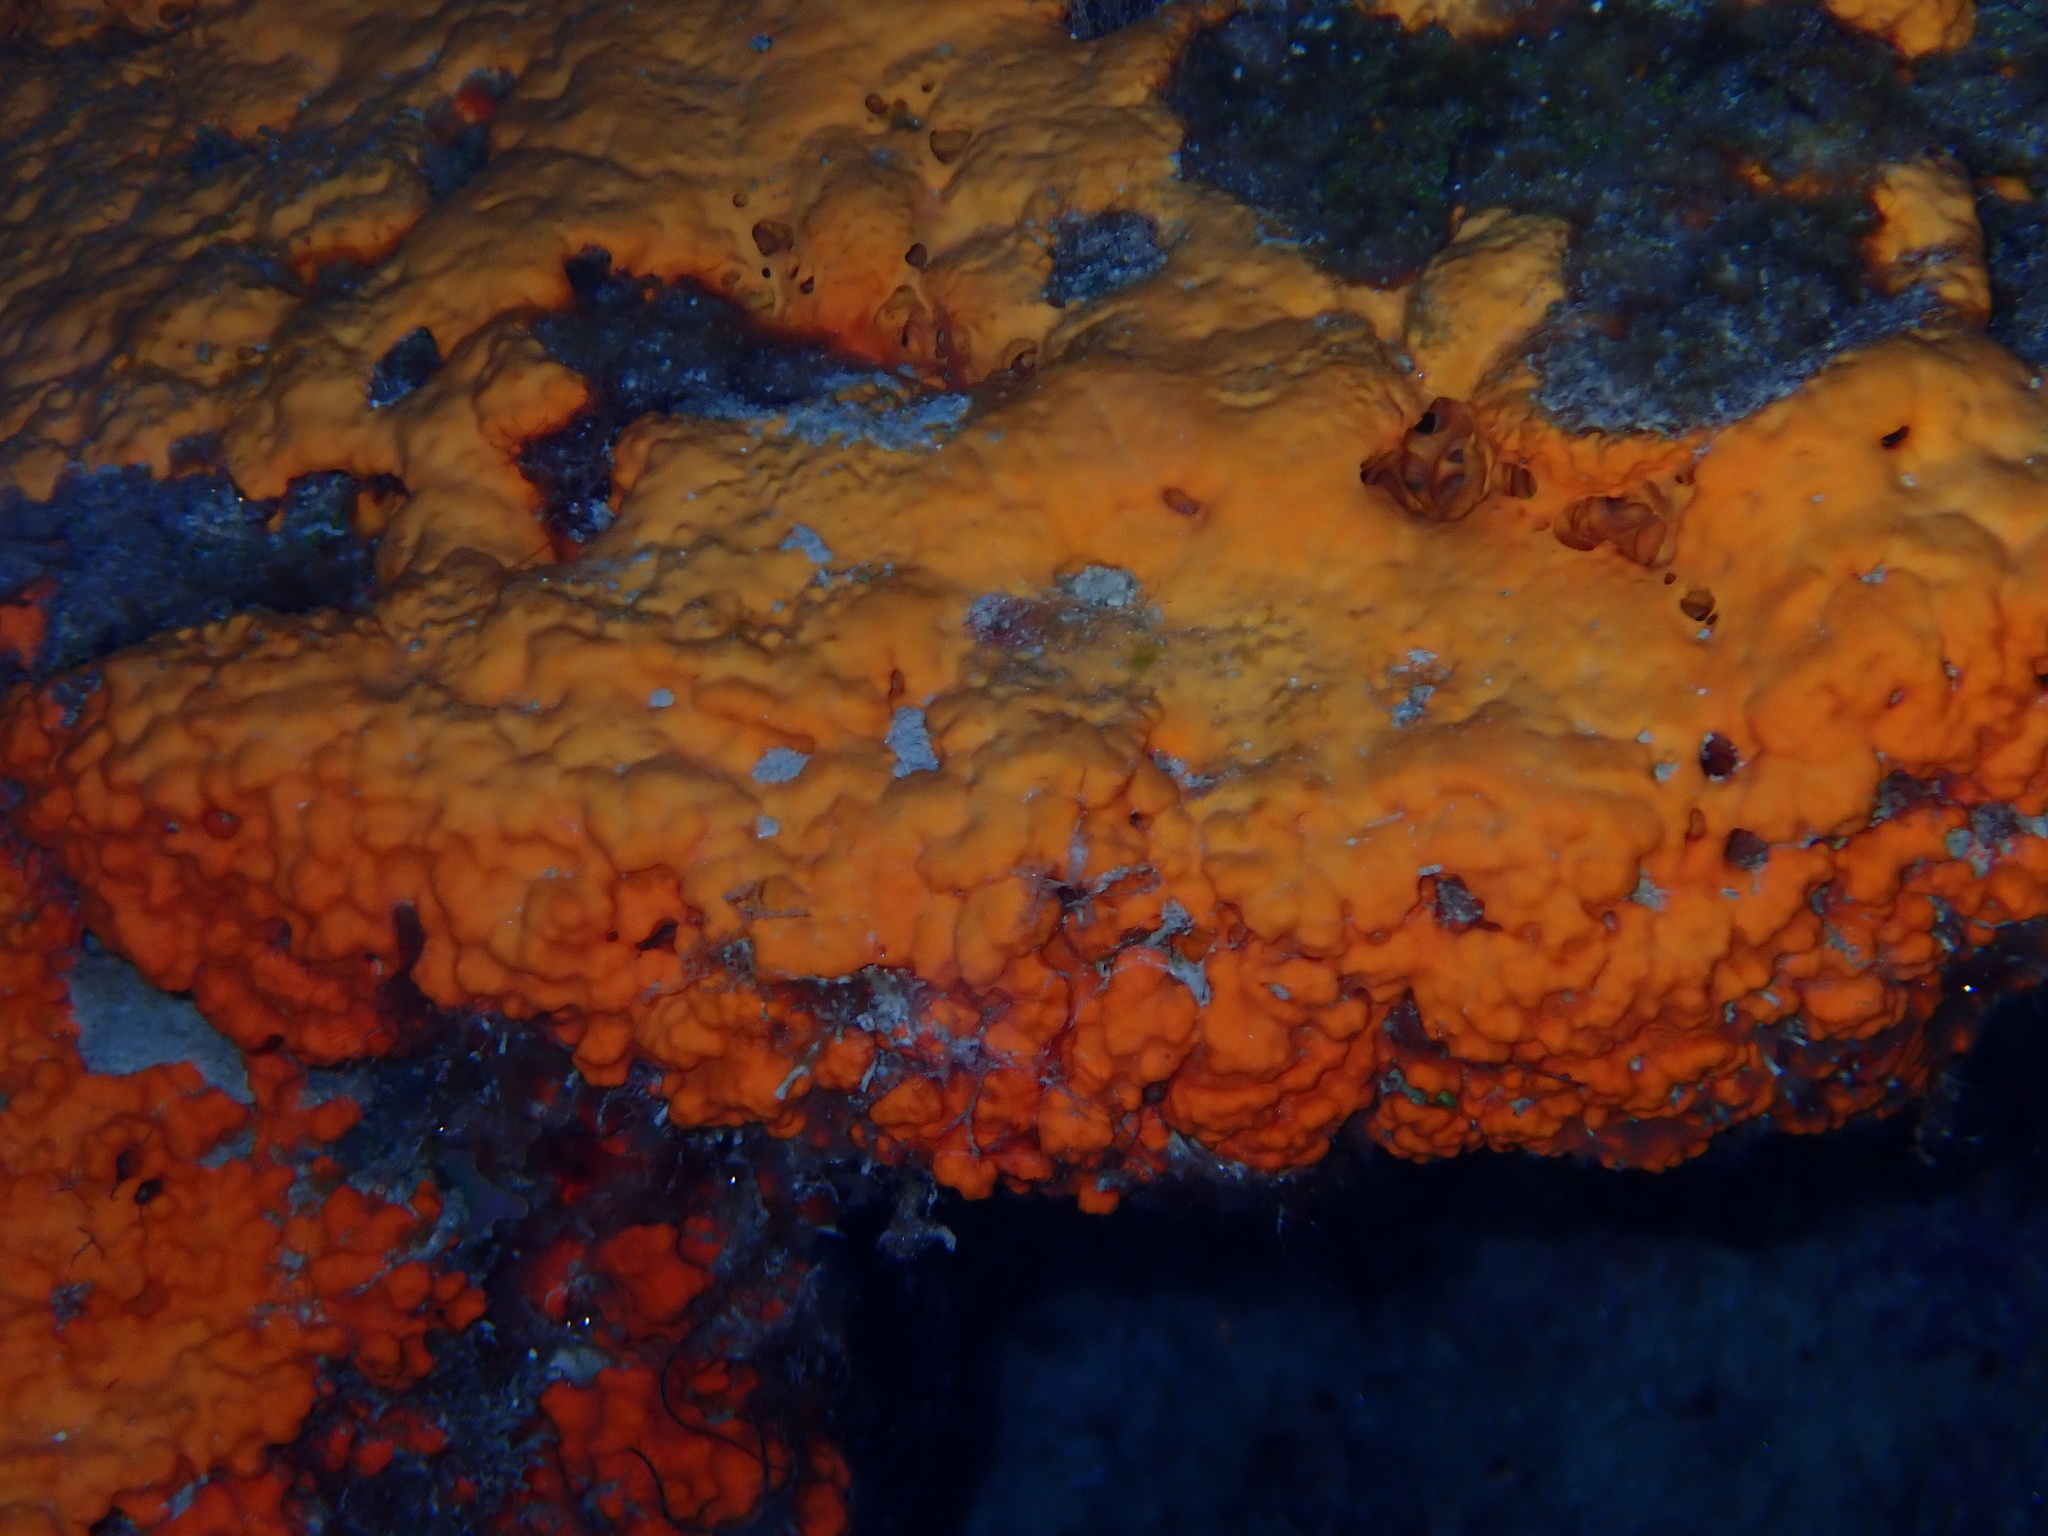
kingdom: Animalia
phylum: Porifera
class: Demospongiae
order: Agelasida
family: Agelasidae
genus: Agelas
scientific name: Agelas clathrodes
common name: Orange elephant ear sponge
